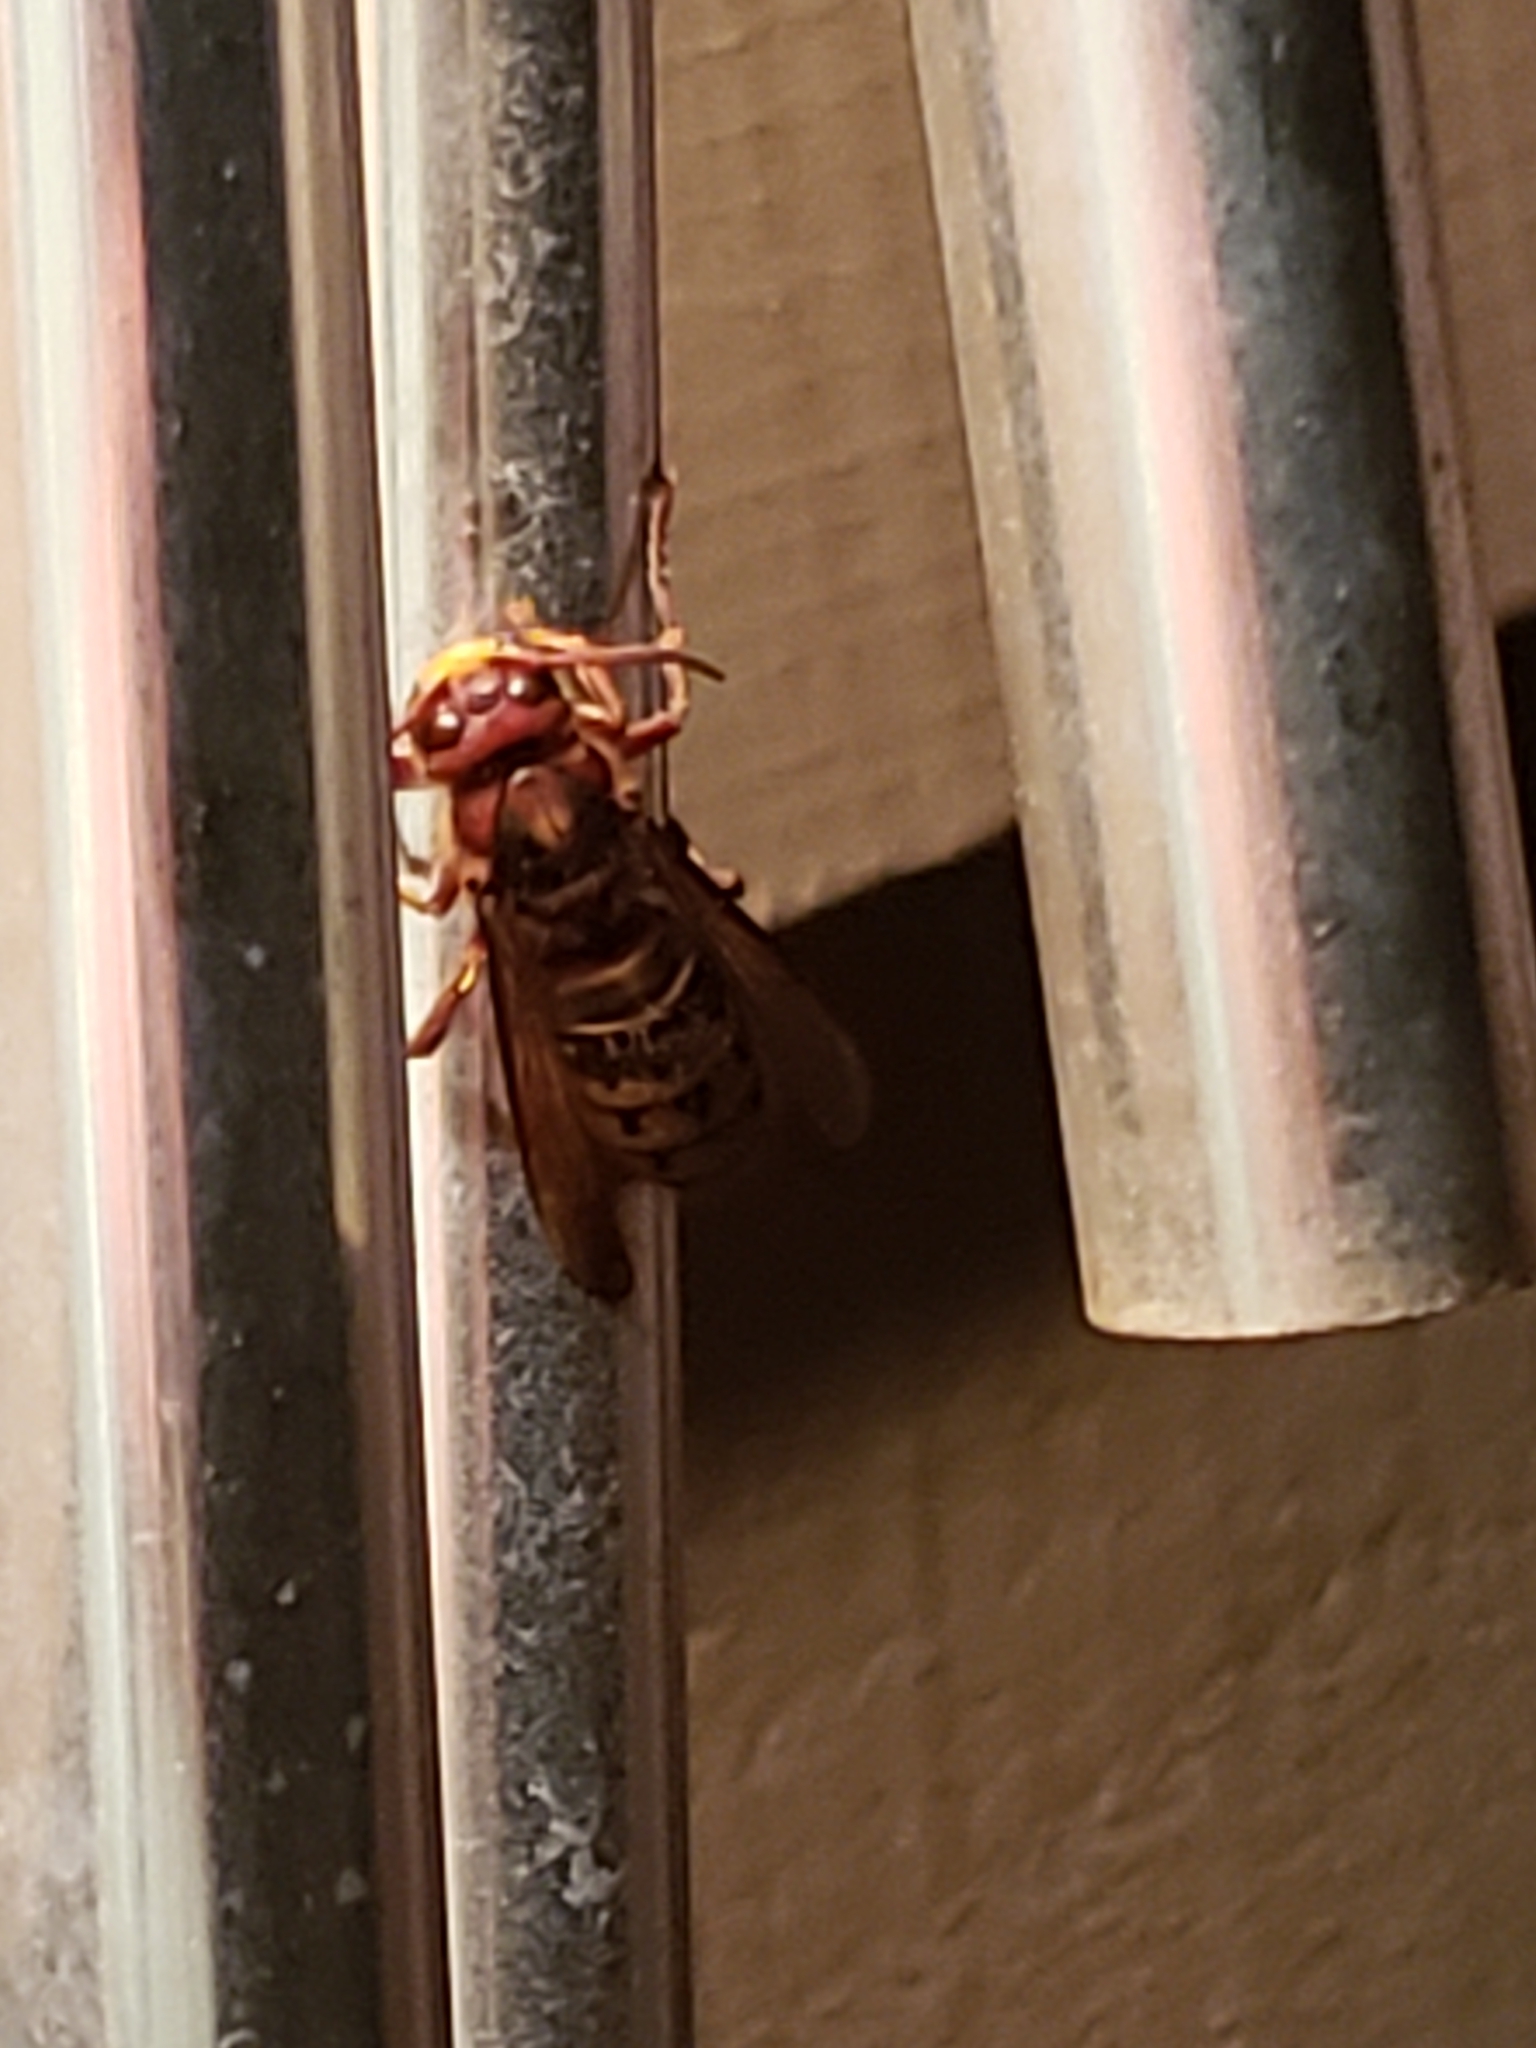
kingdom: Animalia
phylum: Arthropoda
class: Insecta
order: Hymenoptera
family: Vespidae
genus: Vespa
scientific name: Vespa crabro
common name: Hornet
